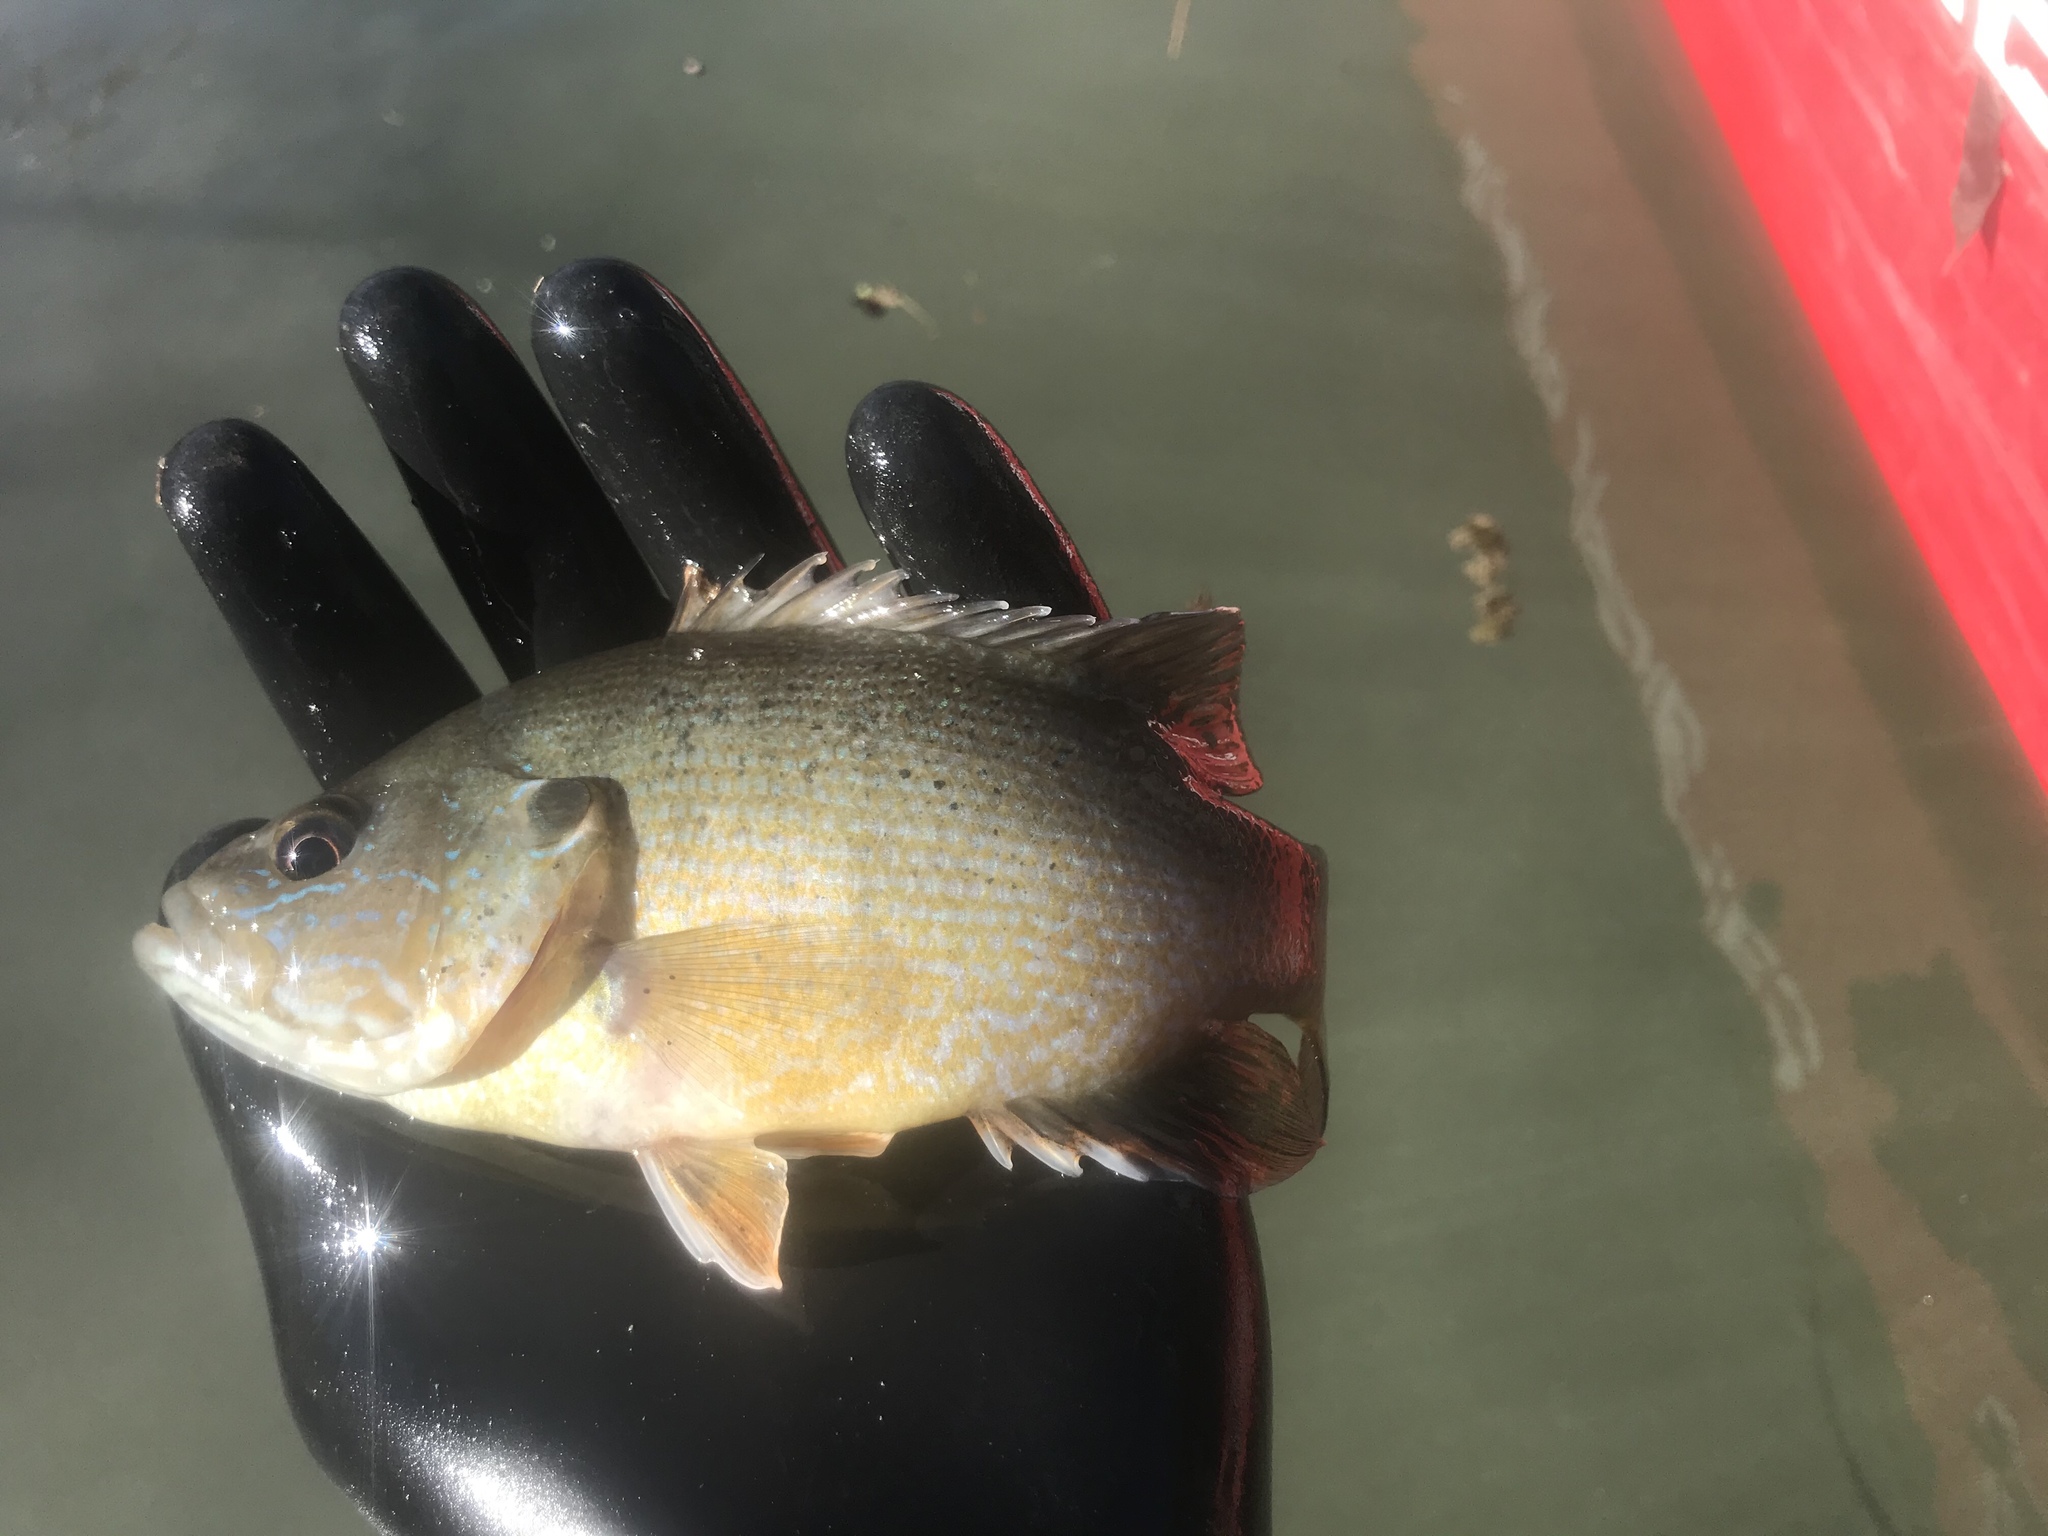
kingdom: Animalia
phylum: Chordata
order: Perciformes
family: Centrarchidae
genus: Lepomis
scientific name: Lepomis cyanellus
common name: Green sunfish
